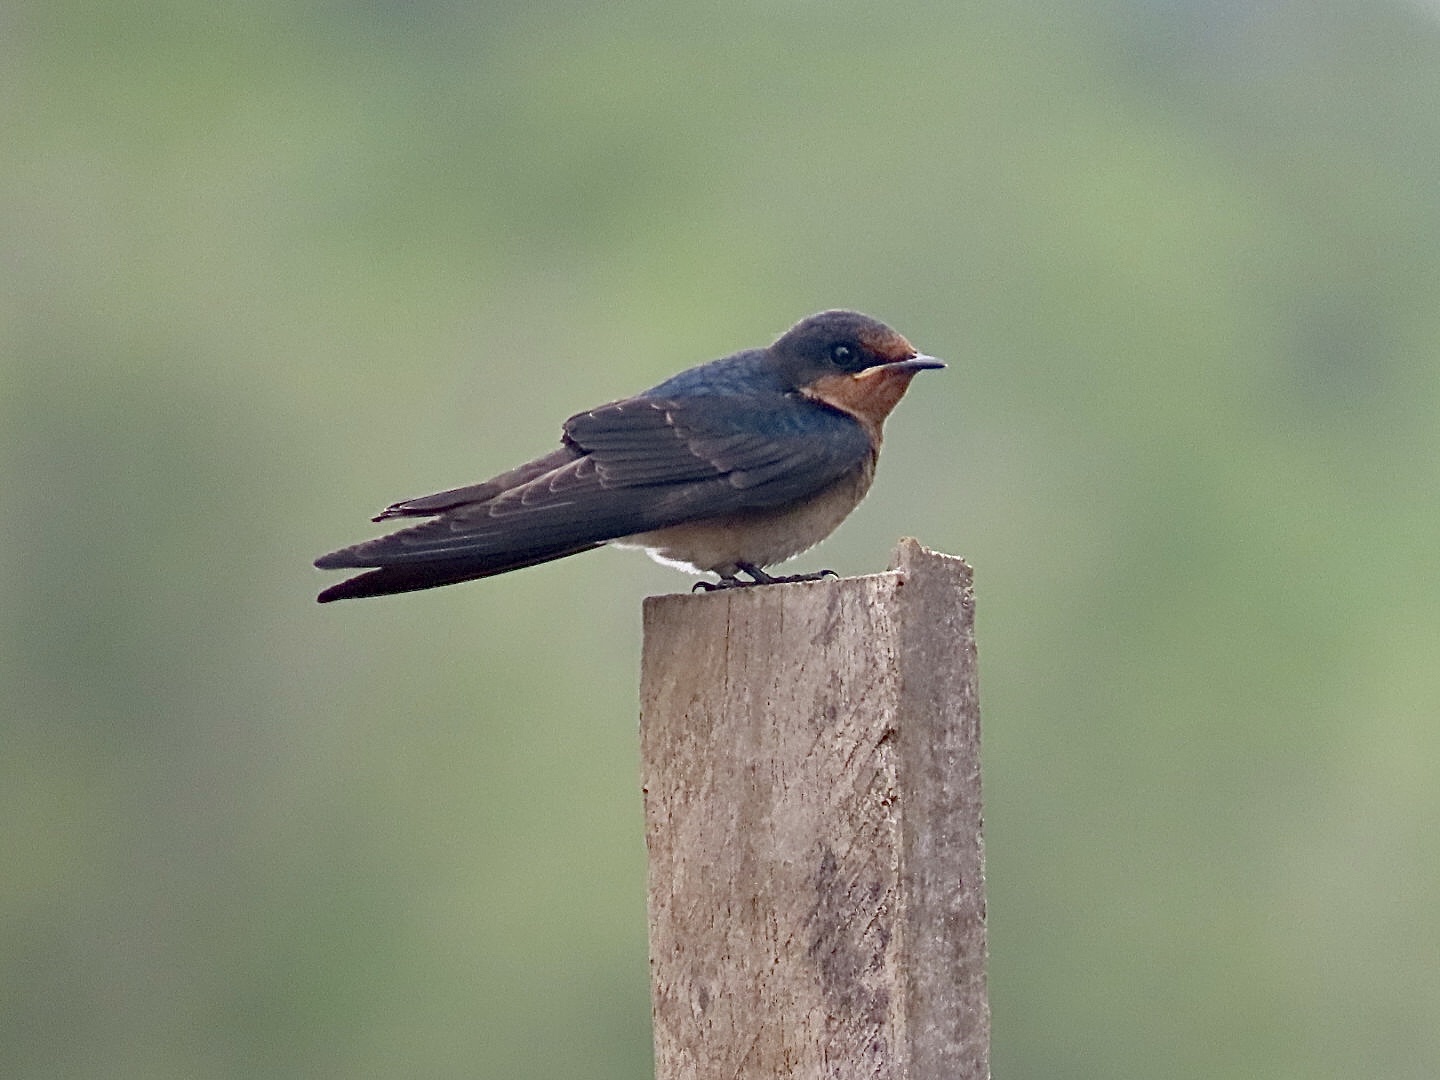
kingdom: Animalia
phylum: Chordata
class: Aves
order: Passeriformes
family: Hirundinidae
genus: Hirundo
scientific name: Hirundo tahitica
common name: Pacific swallow
